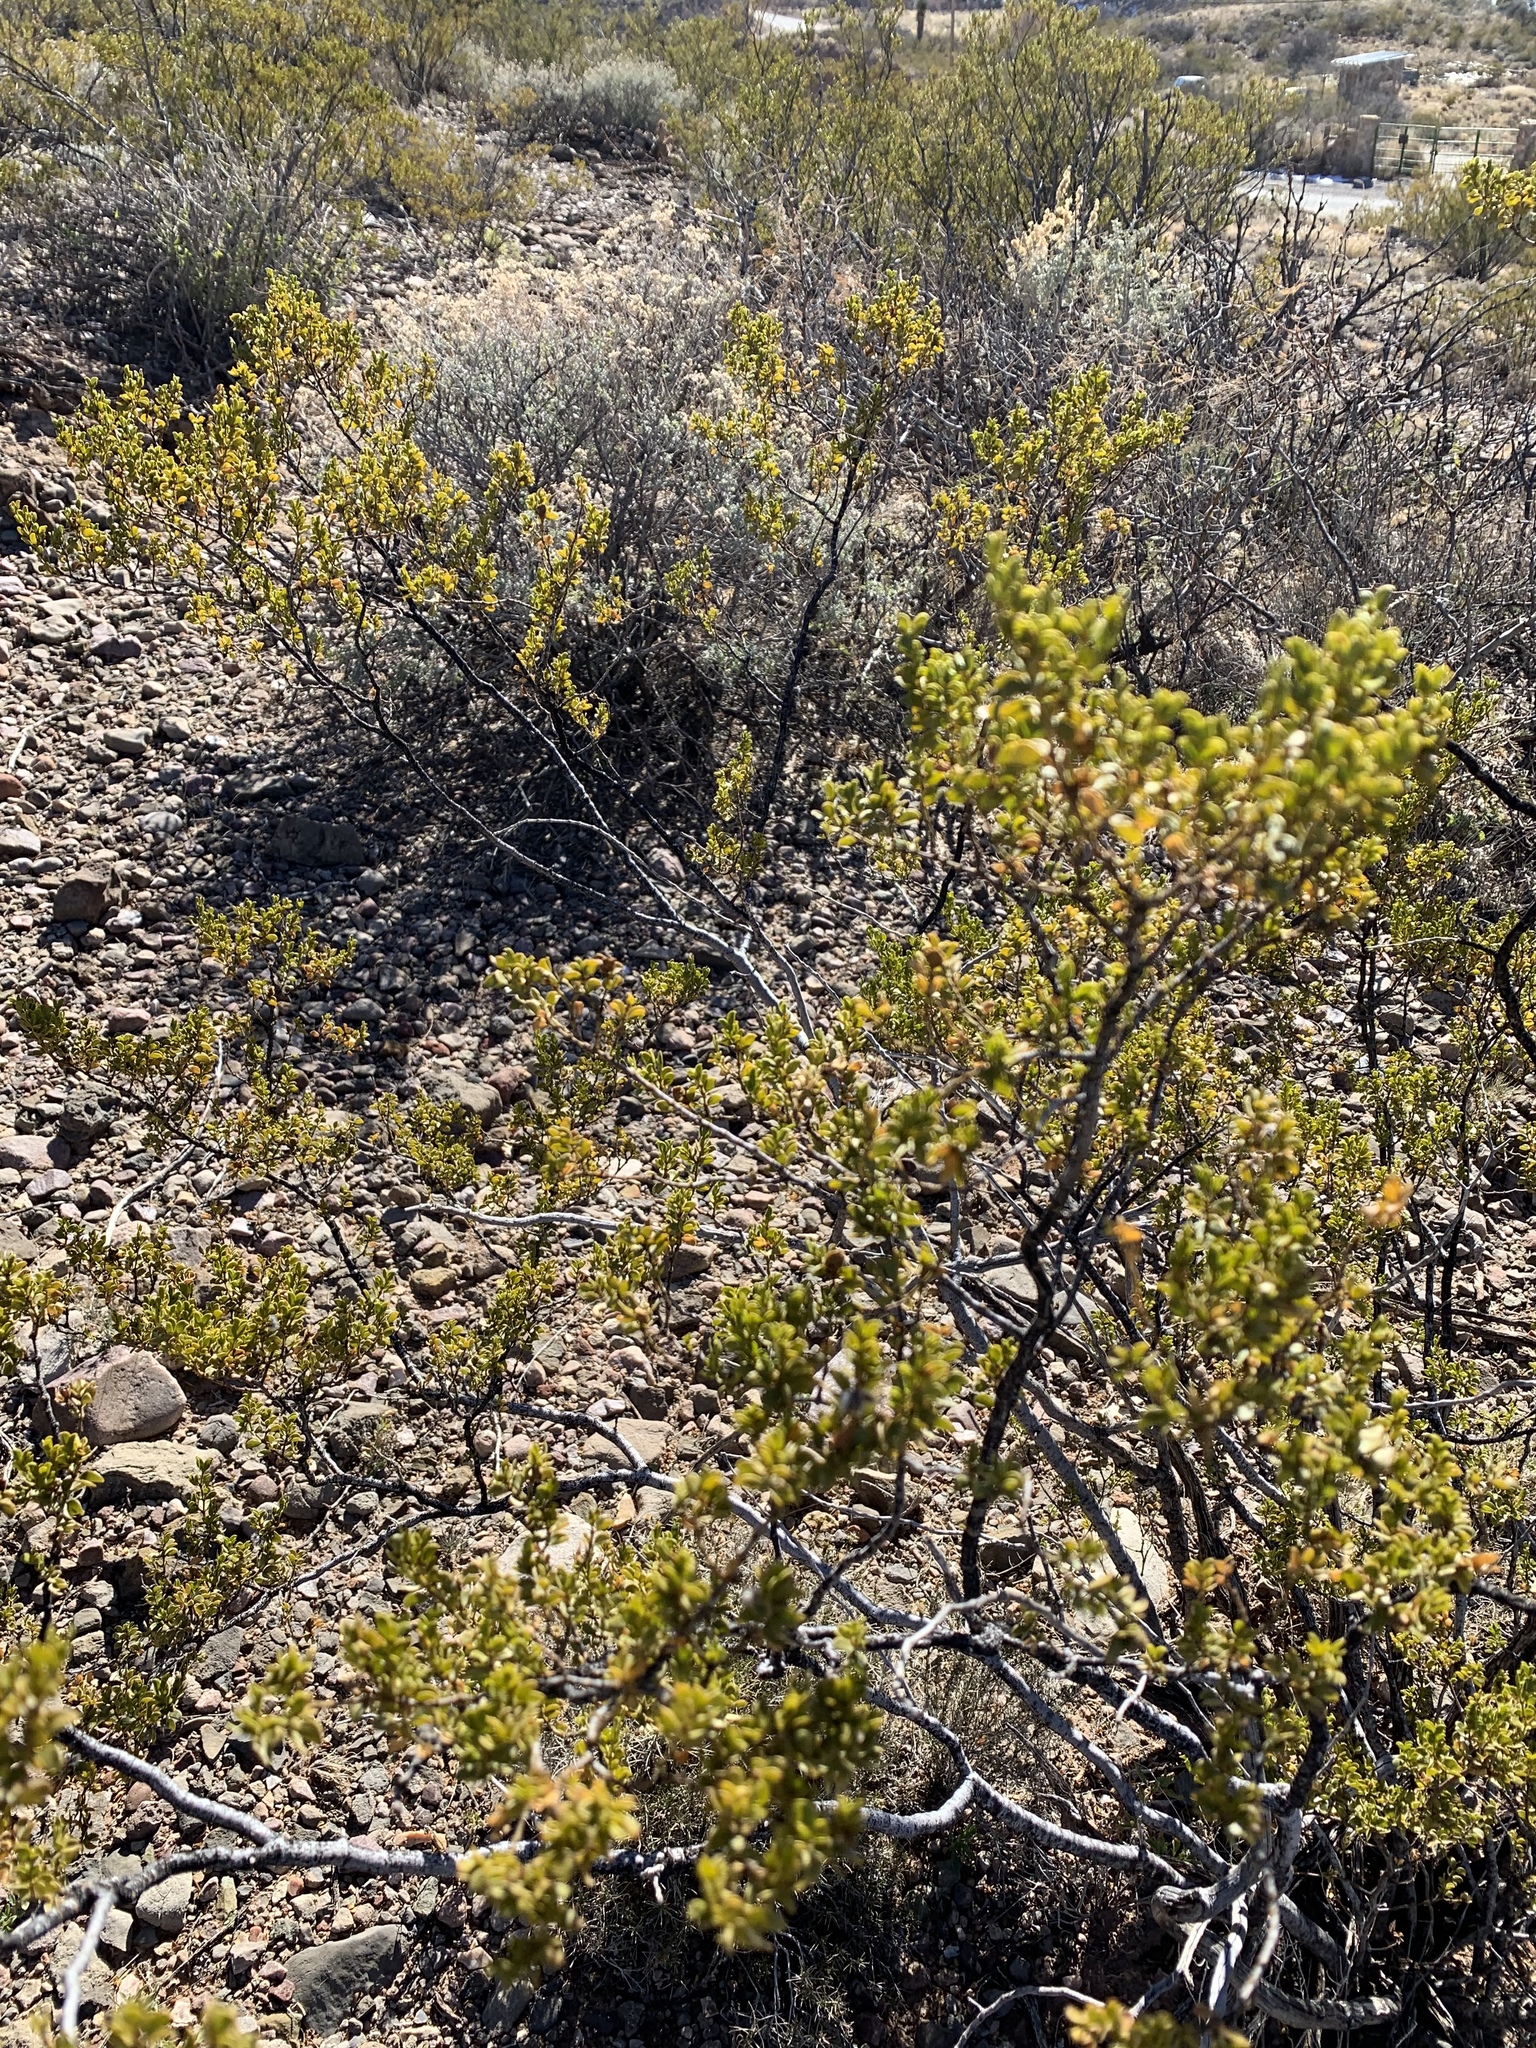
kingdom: Plantae
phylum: Tracheophyta
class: Magnoliopsida
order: Zygophyllales
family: Zygophyllaceae
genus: Larrea
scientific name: Larrea tridentata
